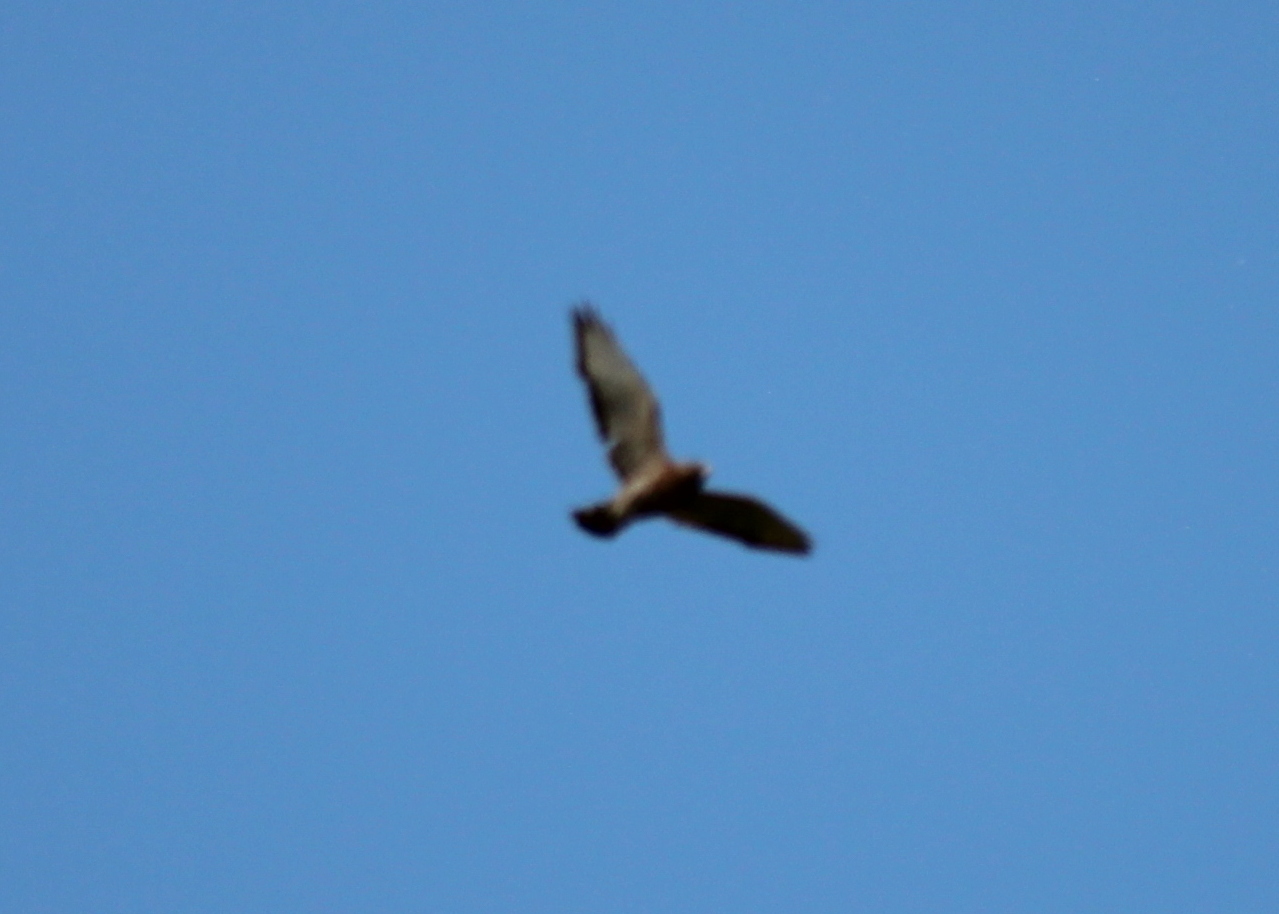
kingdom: Animalia
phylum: Chordata
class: Aves
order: Accipitriformes
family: Accipitridae
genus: Buteo
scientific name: Buteo platypterus
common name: Broad-winged hawk
